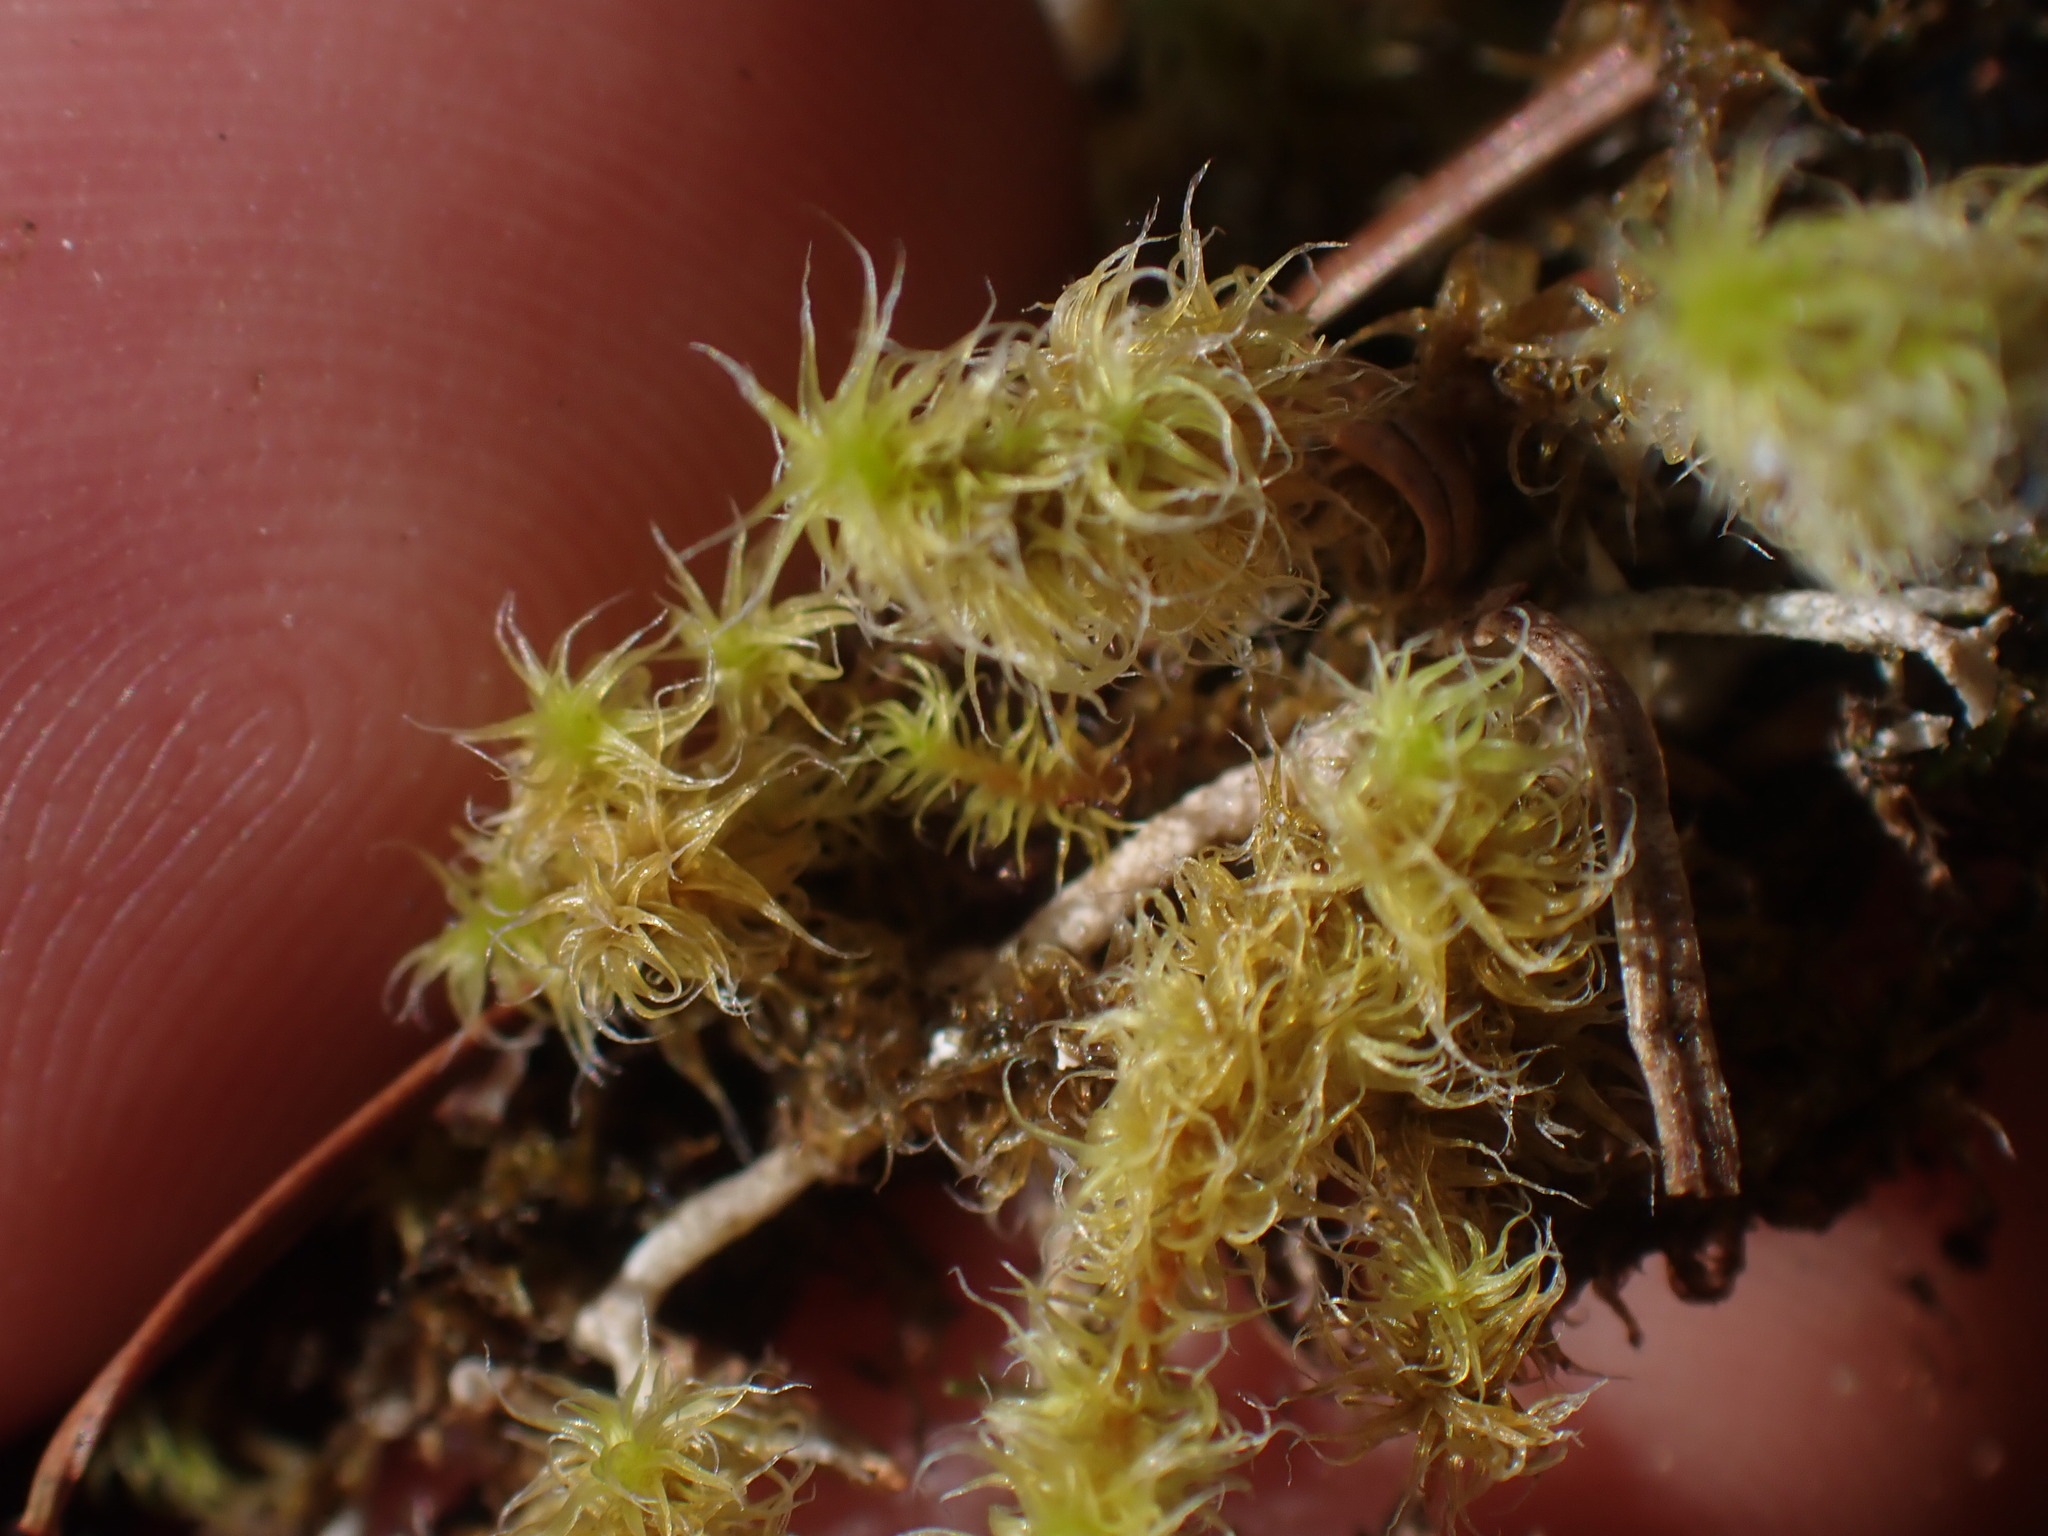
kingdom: Plantae
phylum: Bryophyta
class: Bryopsida
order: Grimmiales
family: Grimmiaceae
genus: Niphotrichum
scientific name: Niphotrichum elongatum
